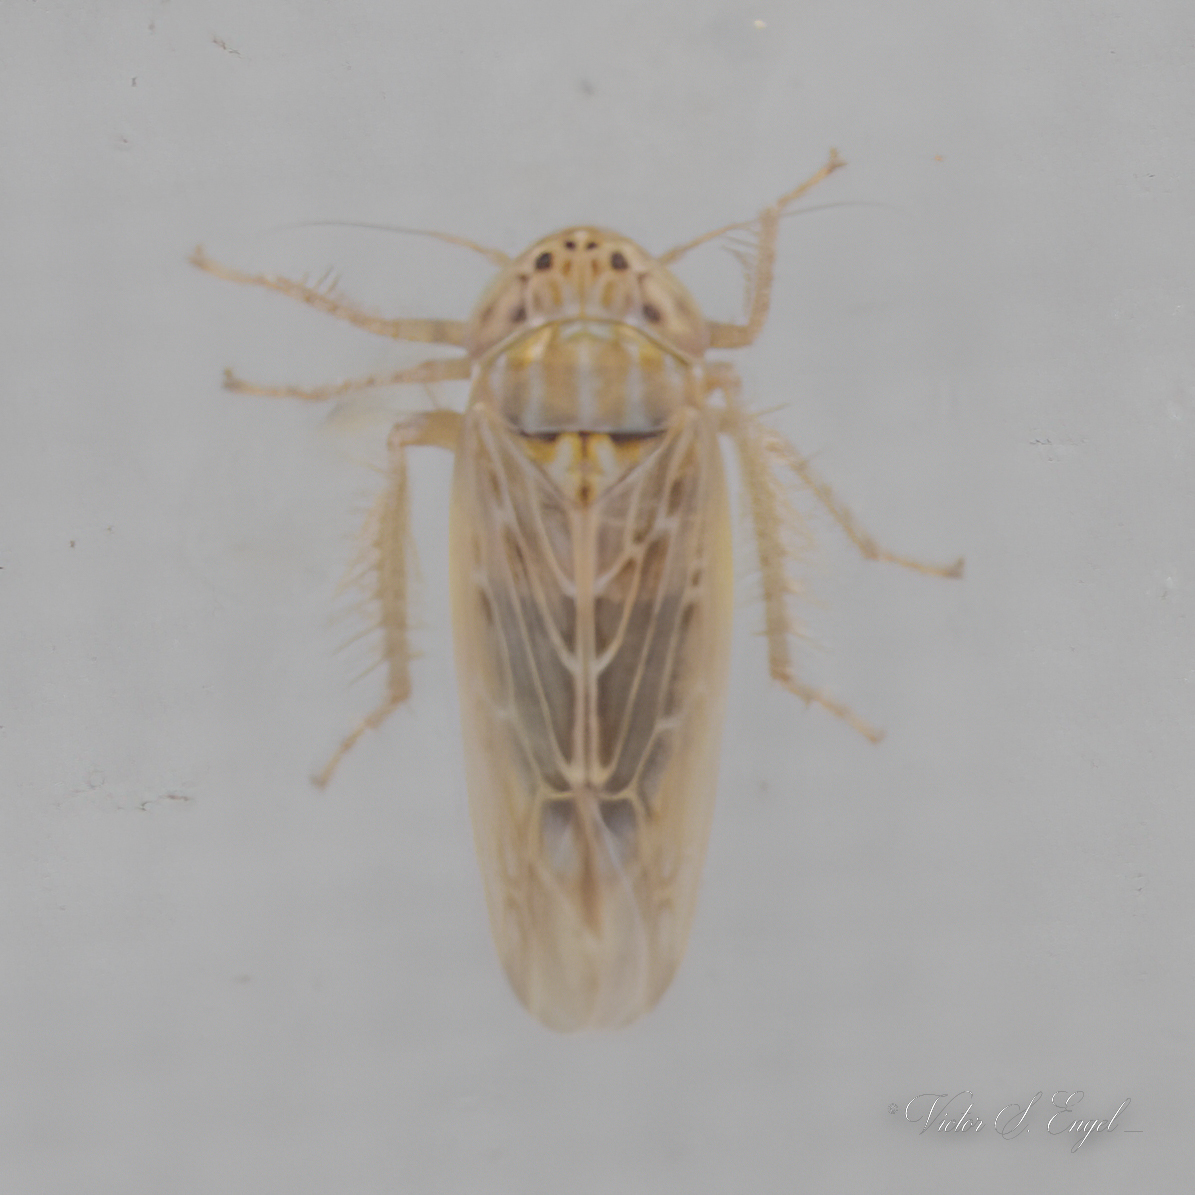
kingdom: Animalia
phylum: Arthropoda
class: Insecta
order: Hemiptera
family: Cicadellidae
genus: Graminella
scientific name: Graminella sonora
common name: Lesser lawn leafhopper
